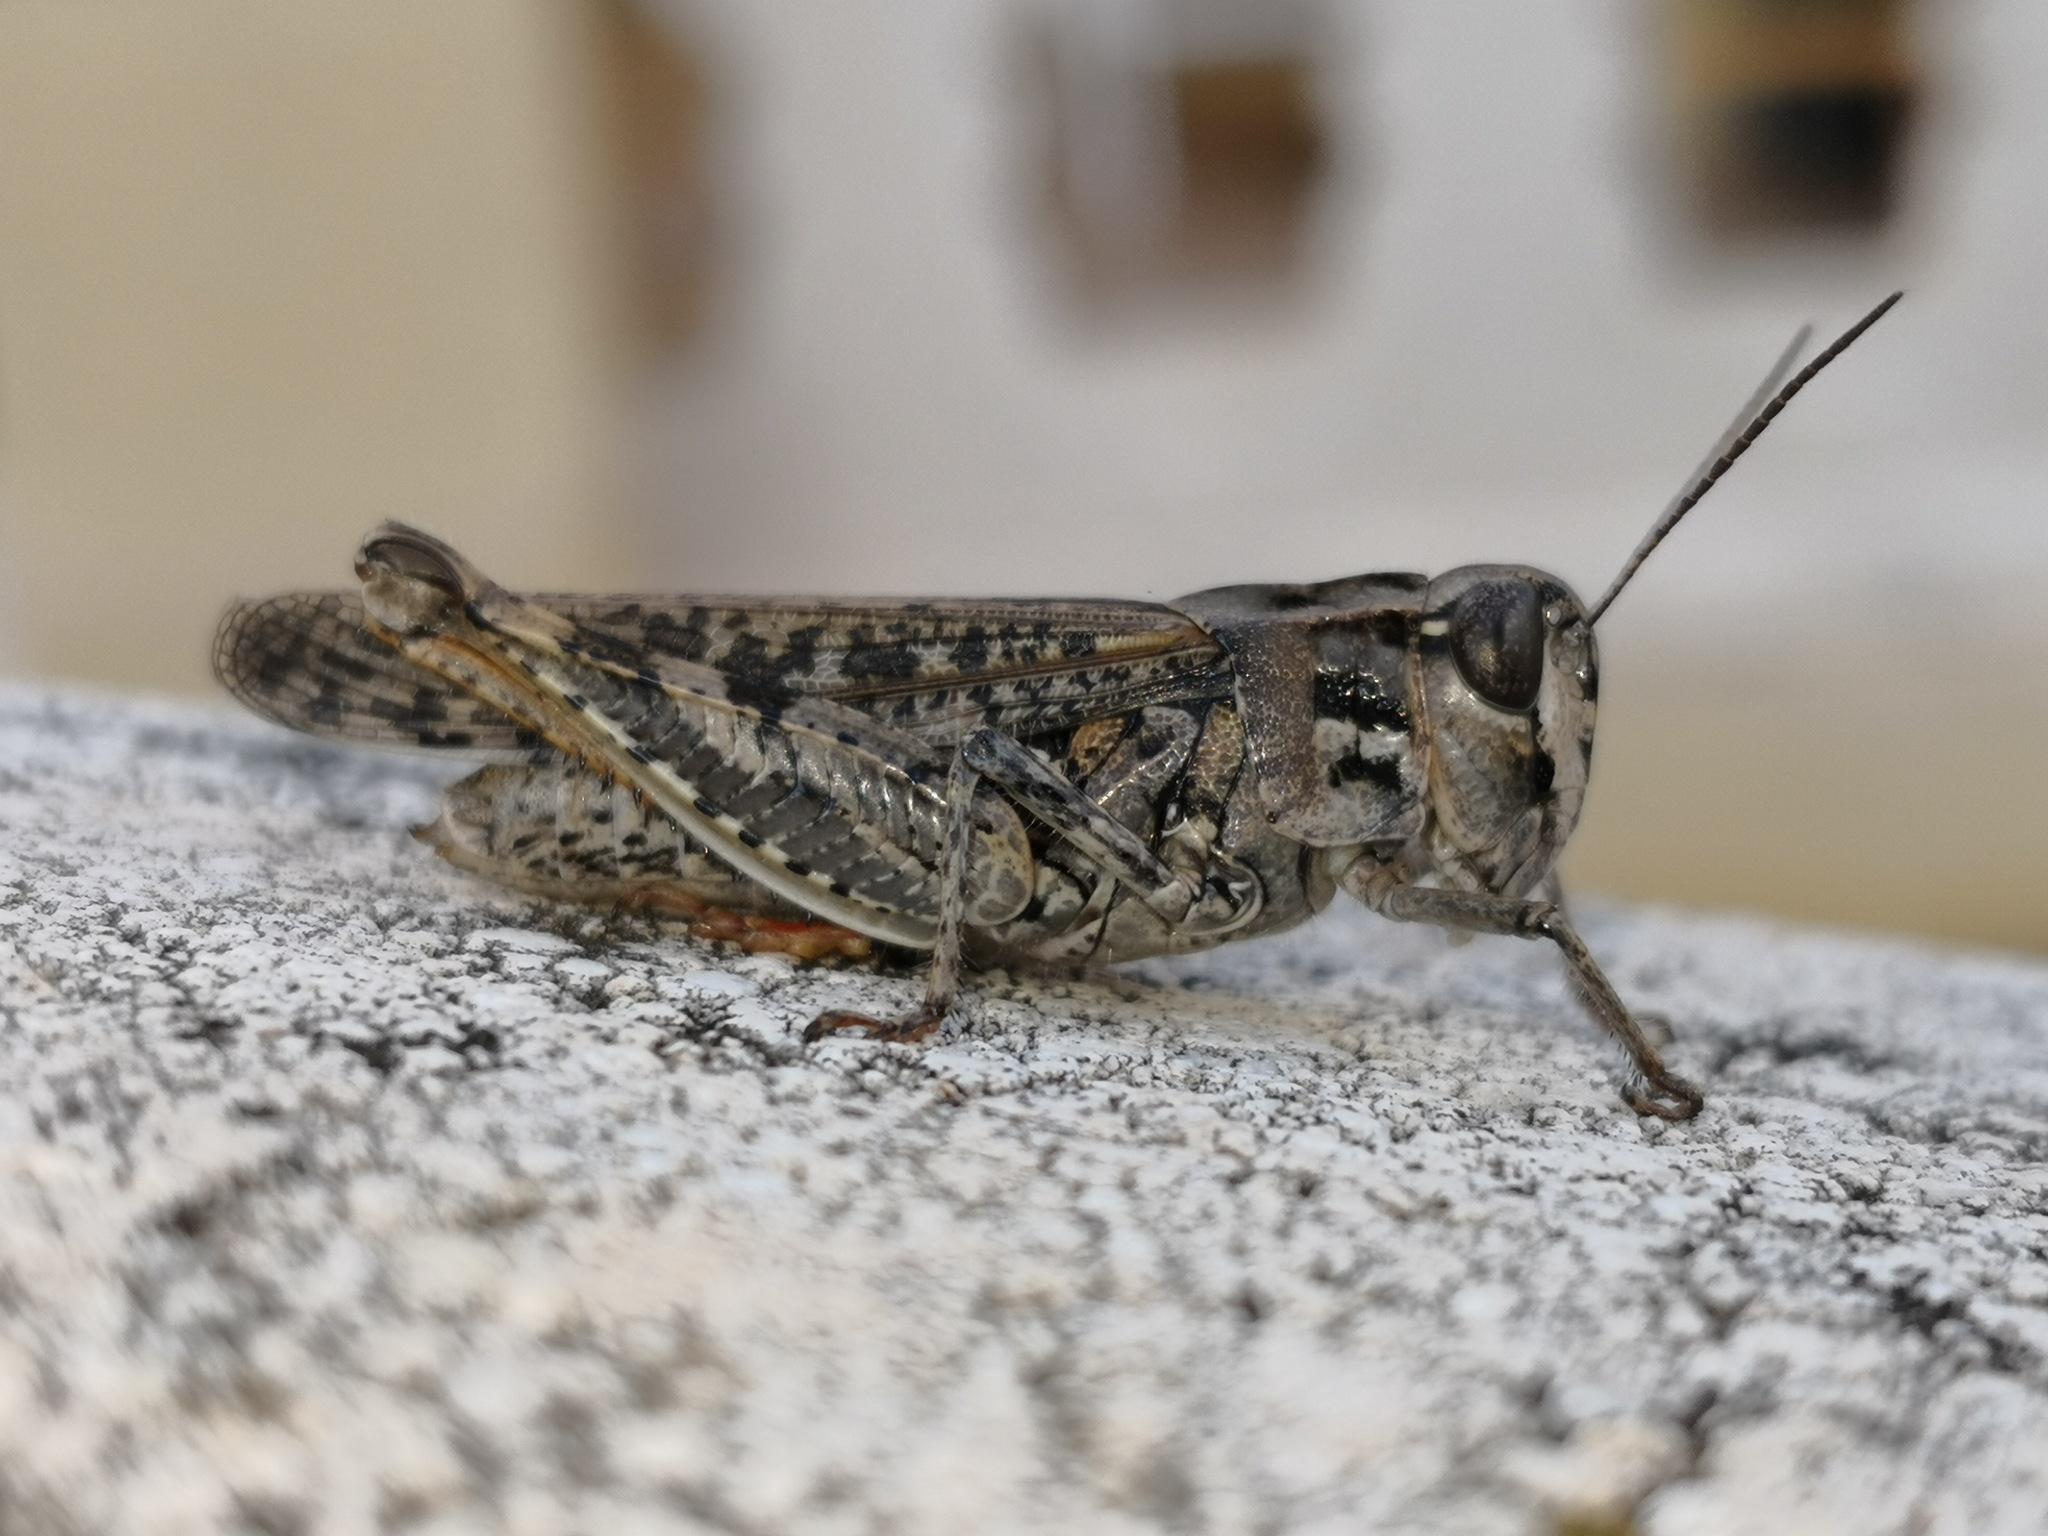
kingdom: Animalia
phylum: Arthropoda
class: Insecta
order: Orthoptera
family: Acrididae
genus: Calliptamus
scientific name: Calliptamus plebeius
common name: Canarian pincer grasshopper
